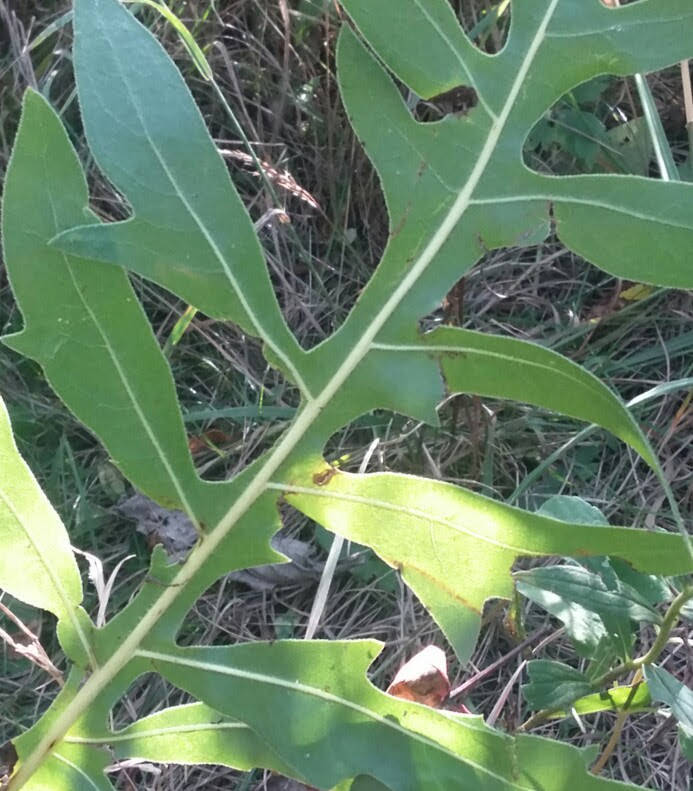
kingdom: Plantae
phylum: Tracheophyta
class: Magnoliopsida
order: Asterales
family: Asteraceae
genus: Silphium
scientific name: Silphium laciniatum
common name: Polarplant
